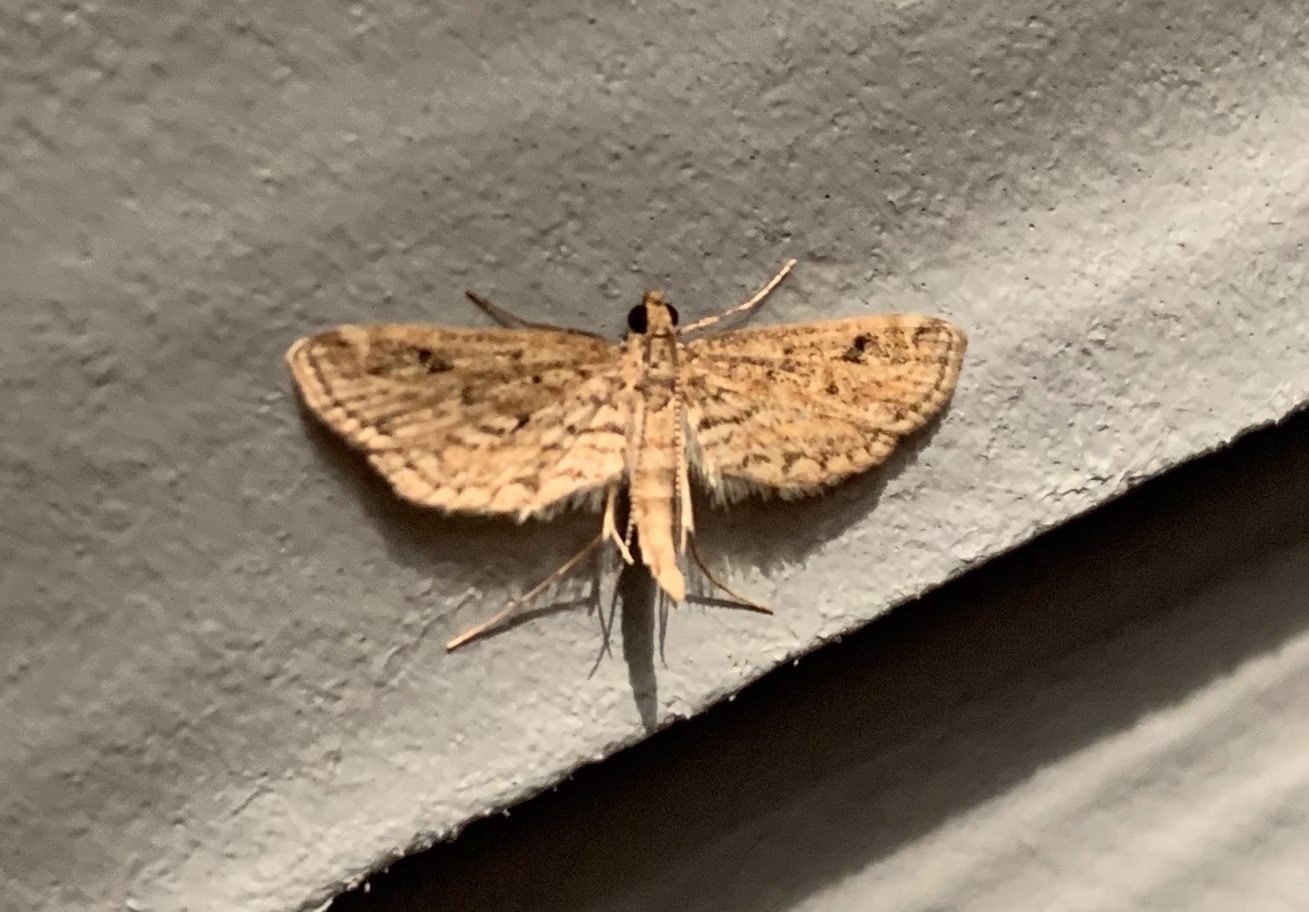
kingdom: Animalia
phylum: Arthropoda
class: Insecta
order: Lepidoptera
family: Crambidae
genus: Parapoynx
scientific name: Parapoynx allionealis
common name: Bladderwort casemaker
